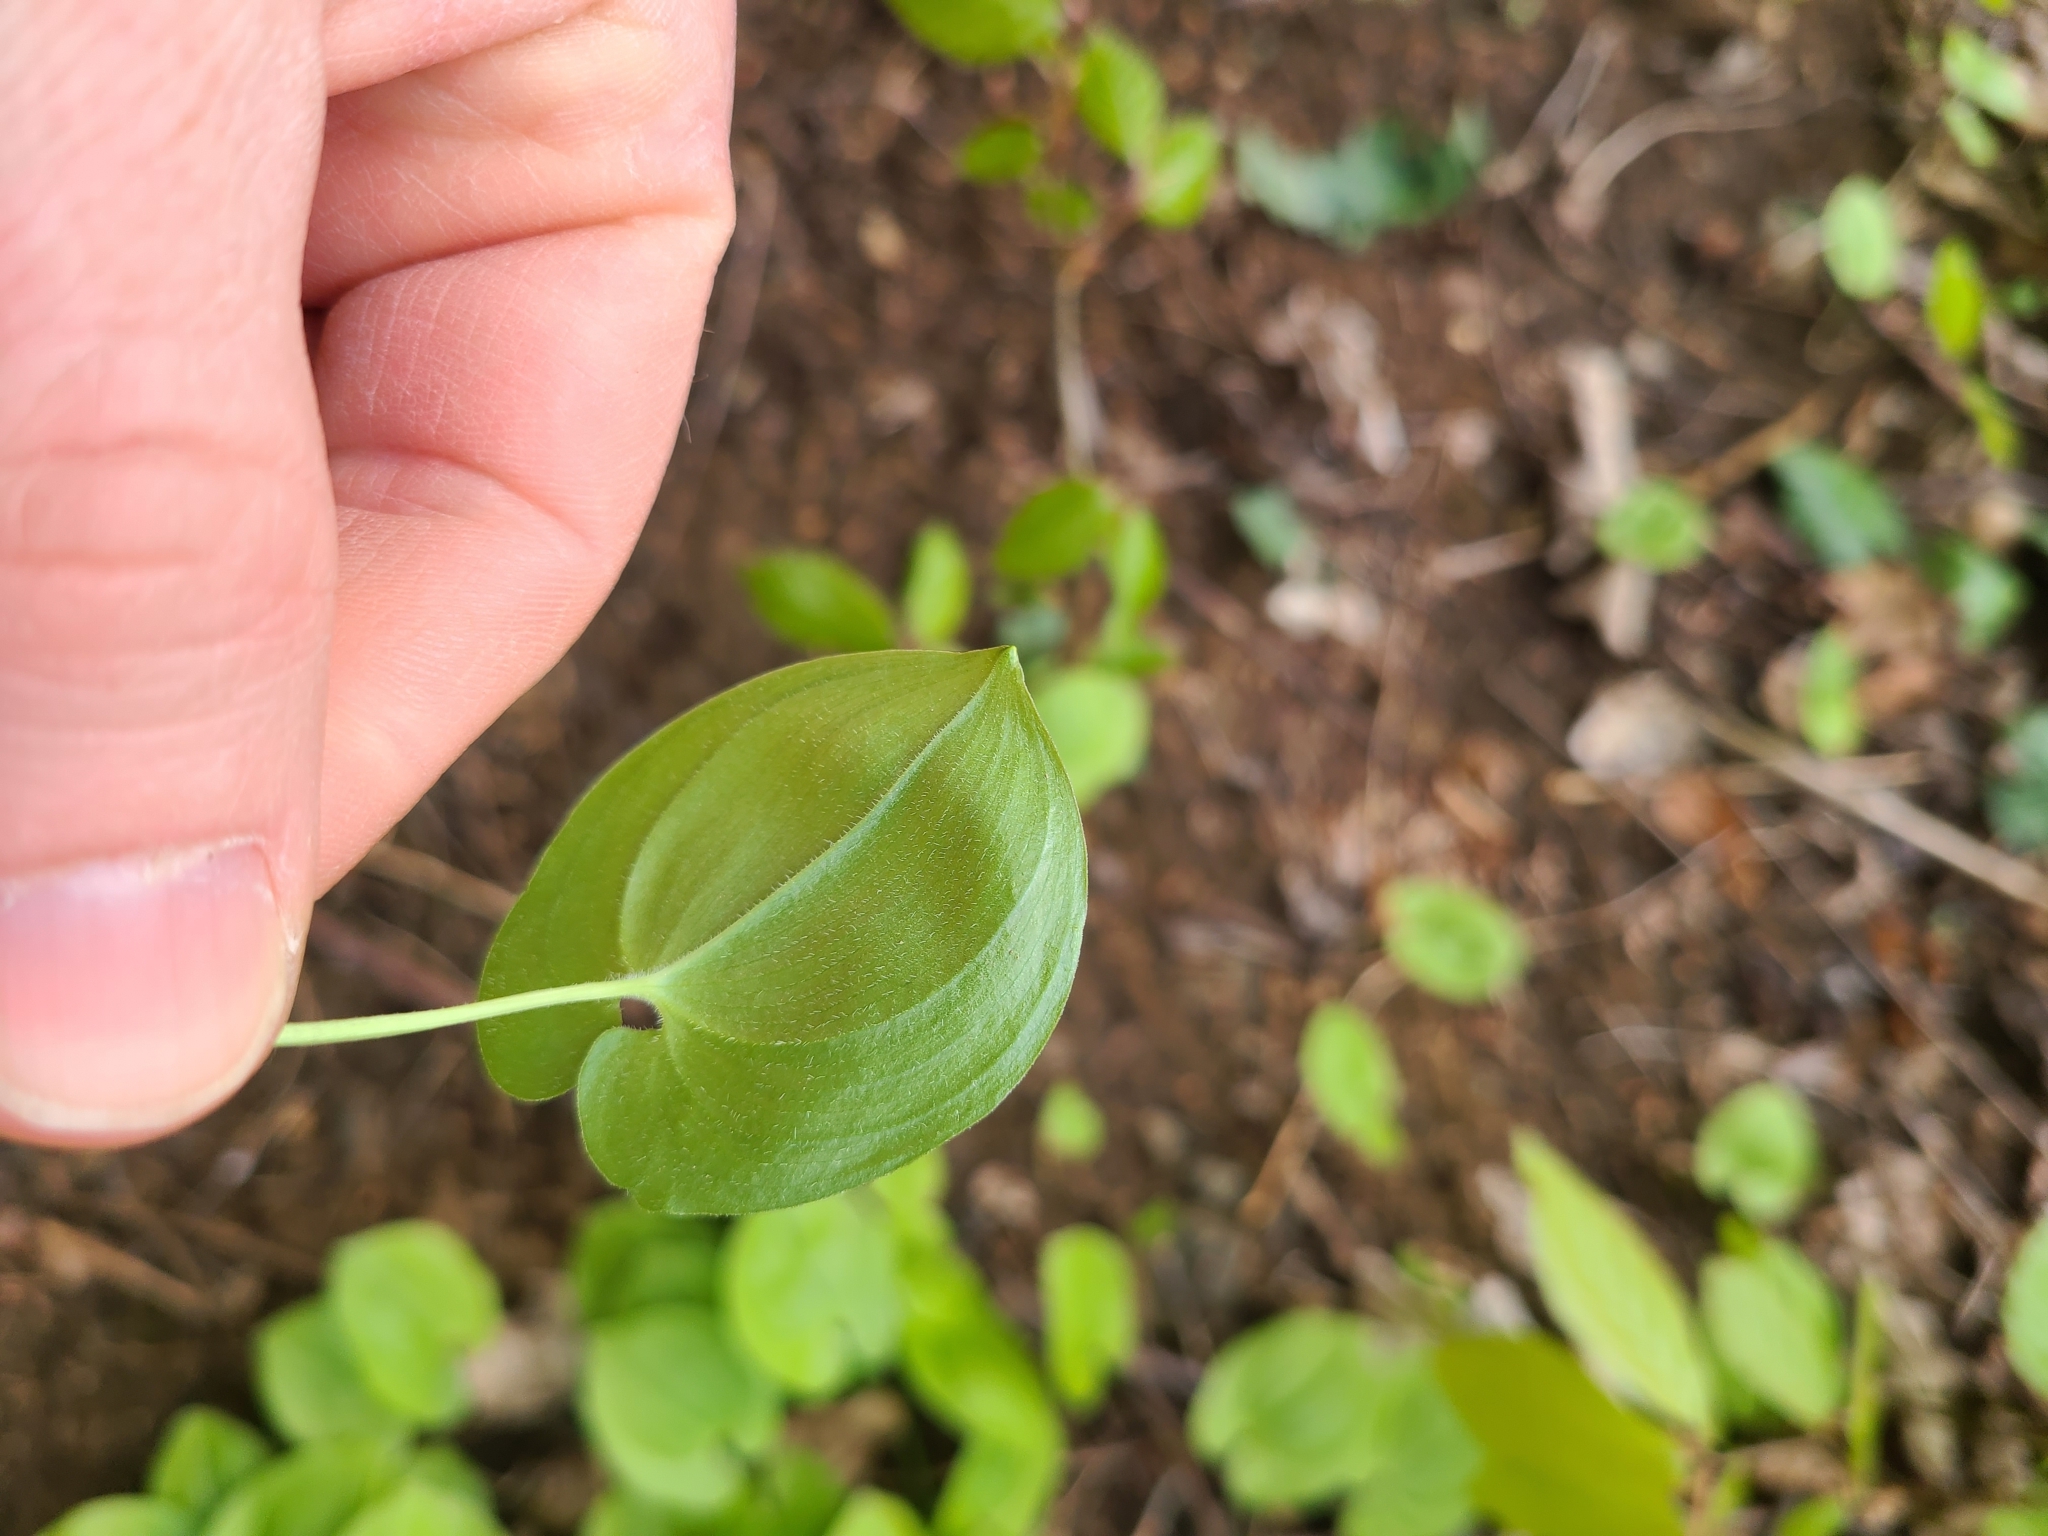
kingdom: Plantae
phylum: Tracheophyta
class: Liliopsida
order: Asparagales
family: Asparagaceae
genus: Maianthemum
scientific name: Maianthemum bifolium
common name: May lily
